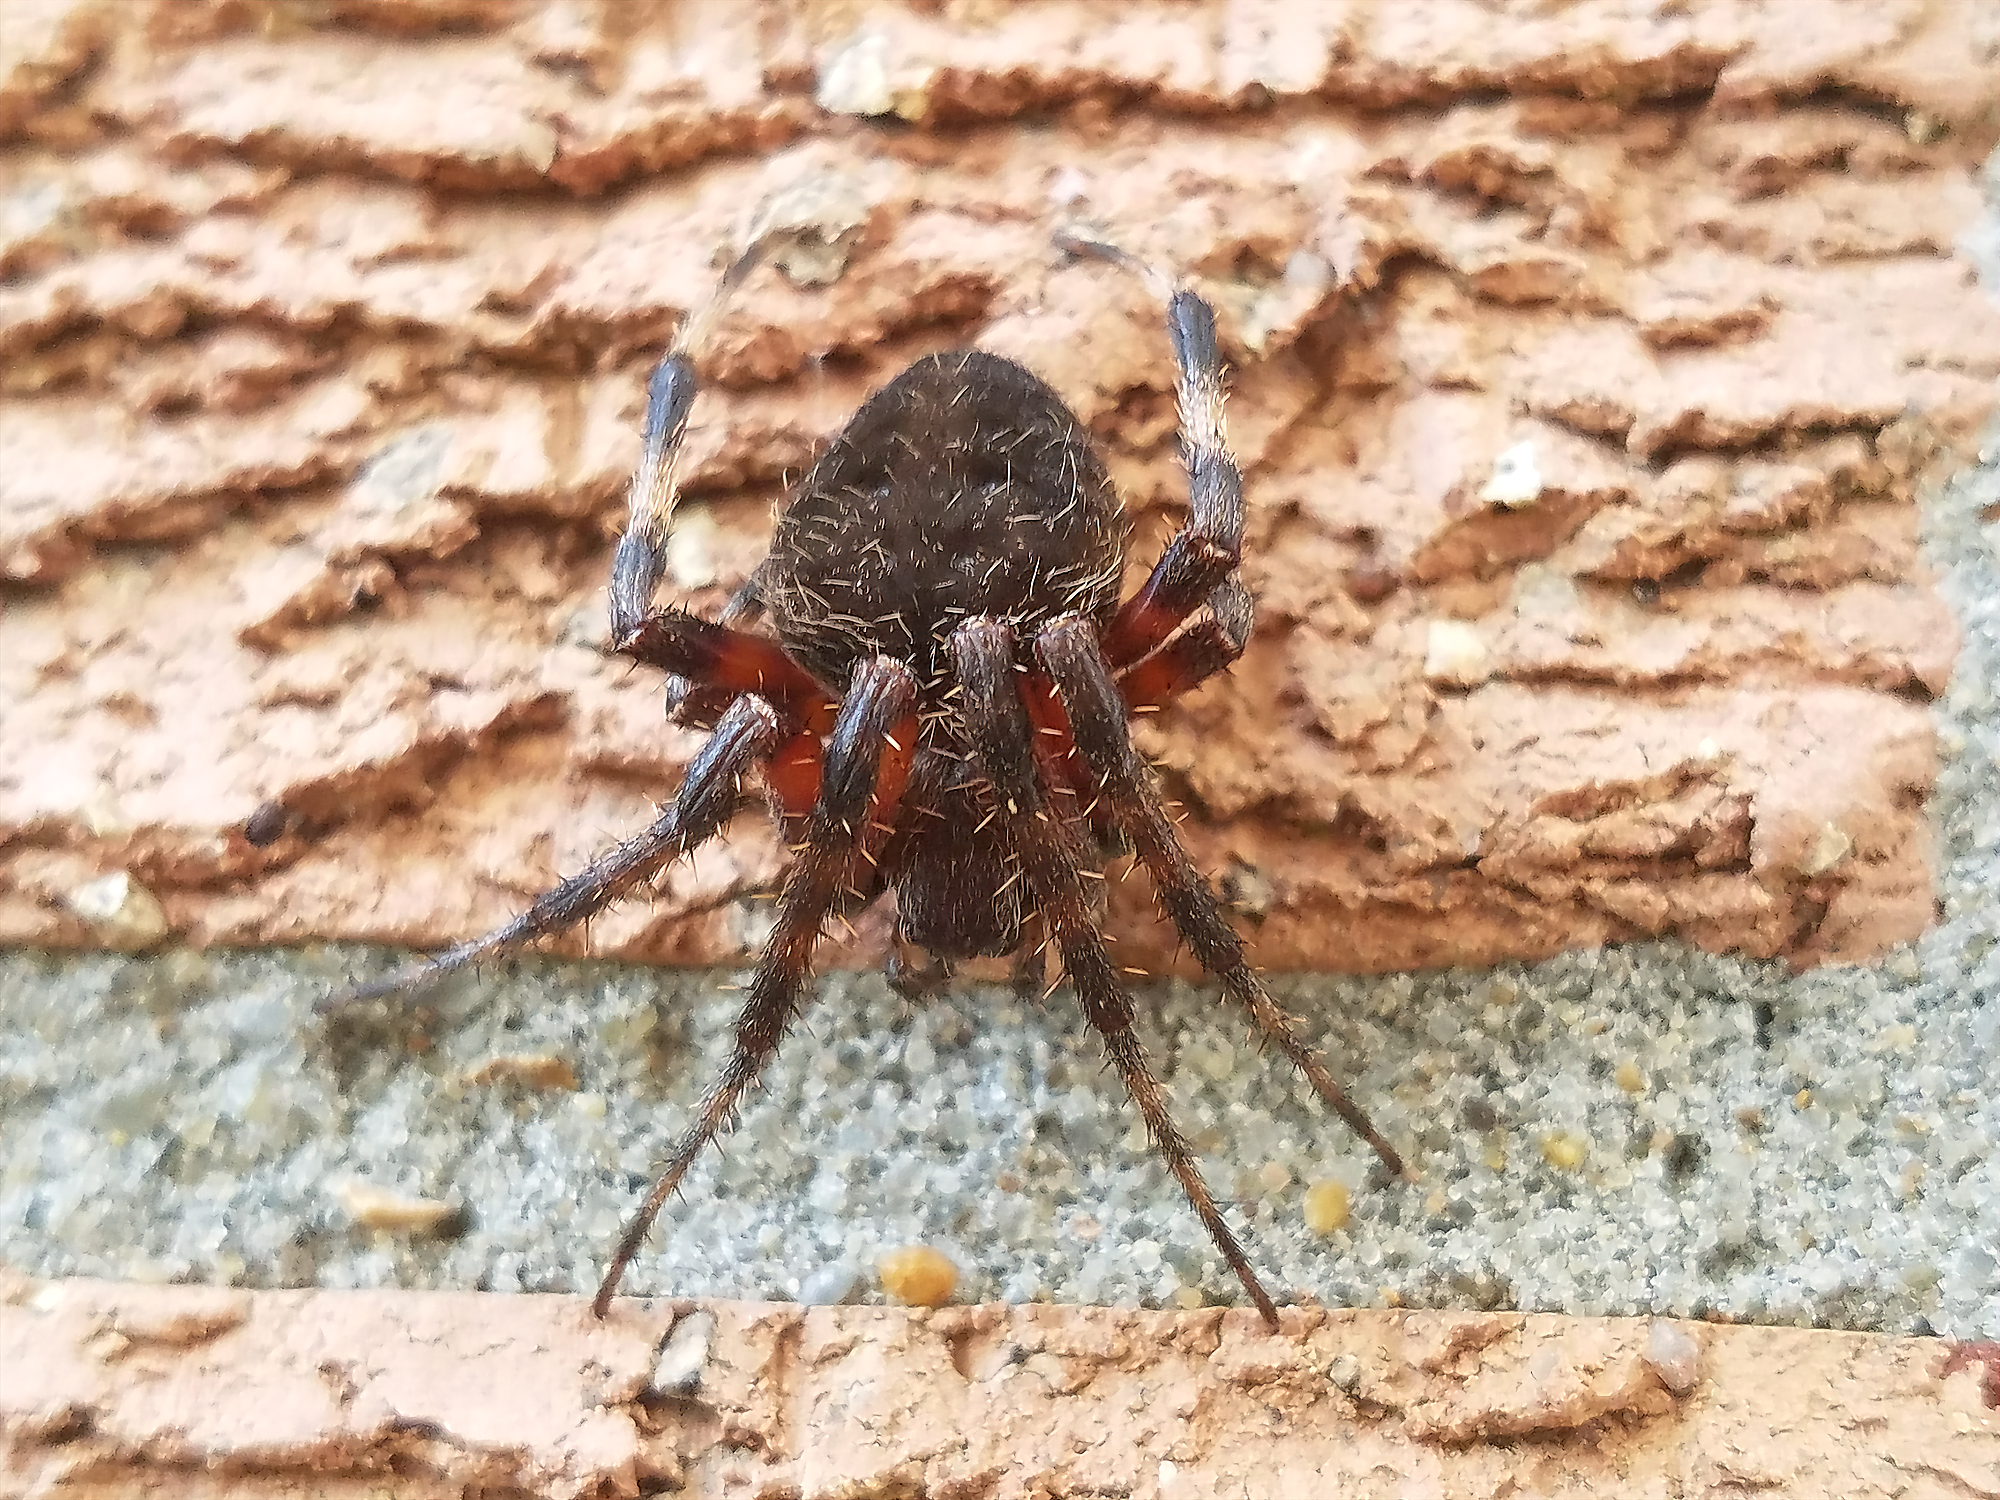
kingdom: Animalia
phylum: Arthropoda
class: Arachnida
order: Araneae
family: Araneidae
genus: Neoscona
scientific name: Neoscona crucifera
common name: Spotted orbweaver
